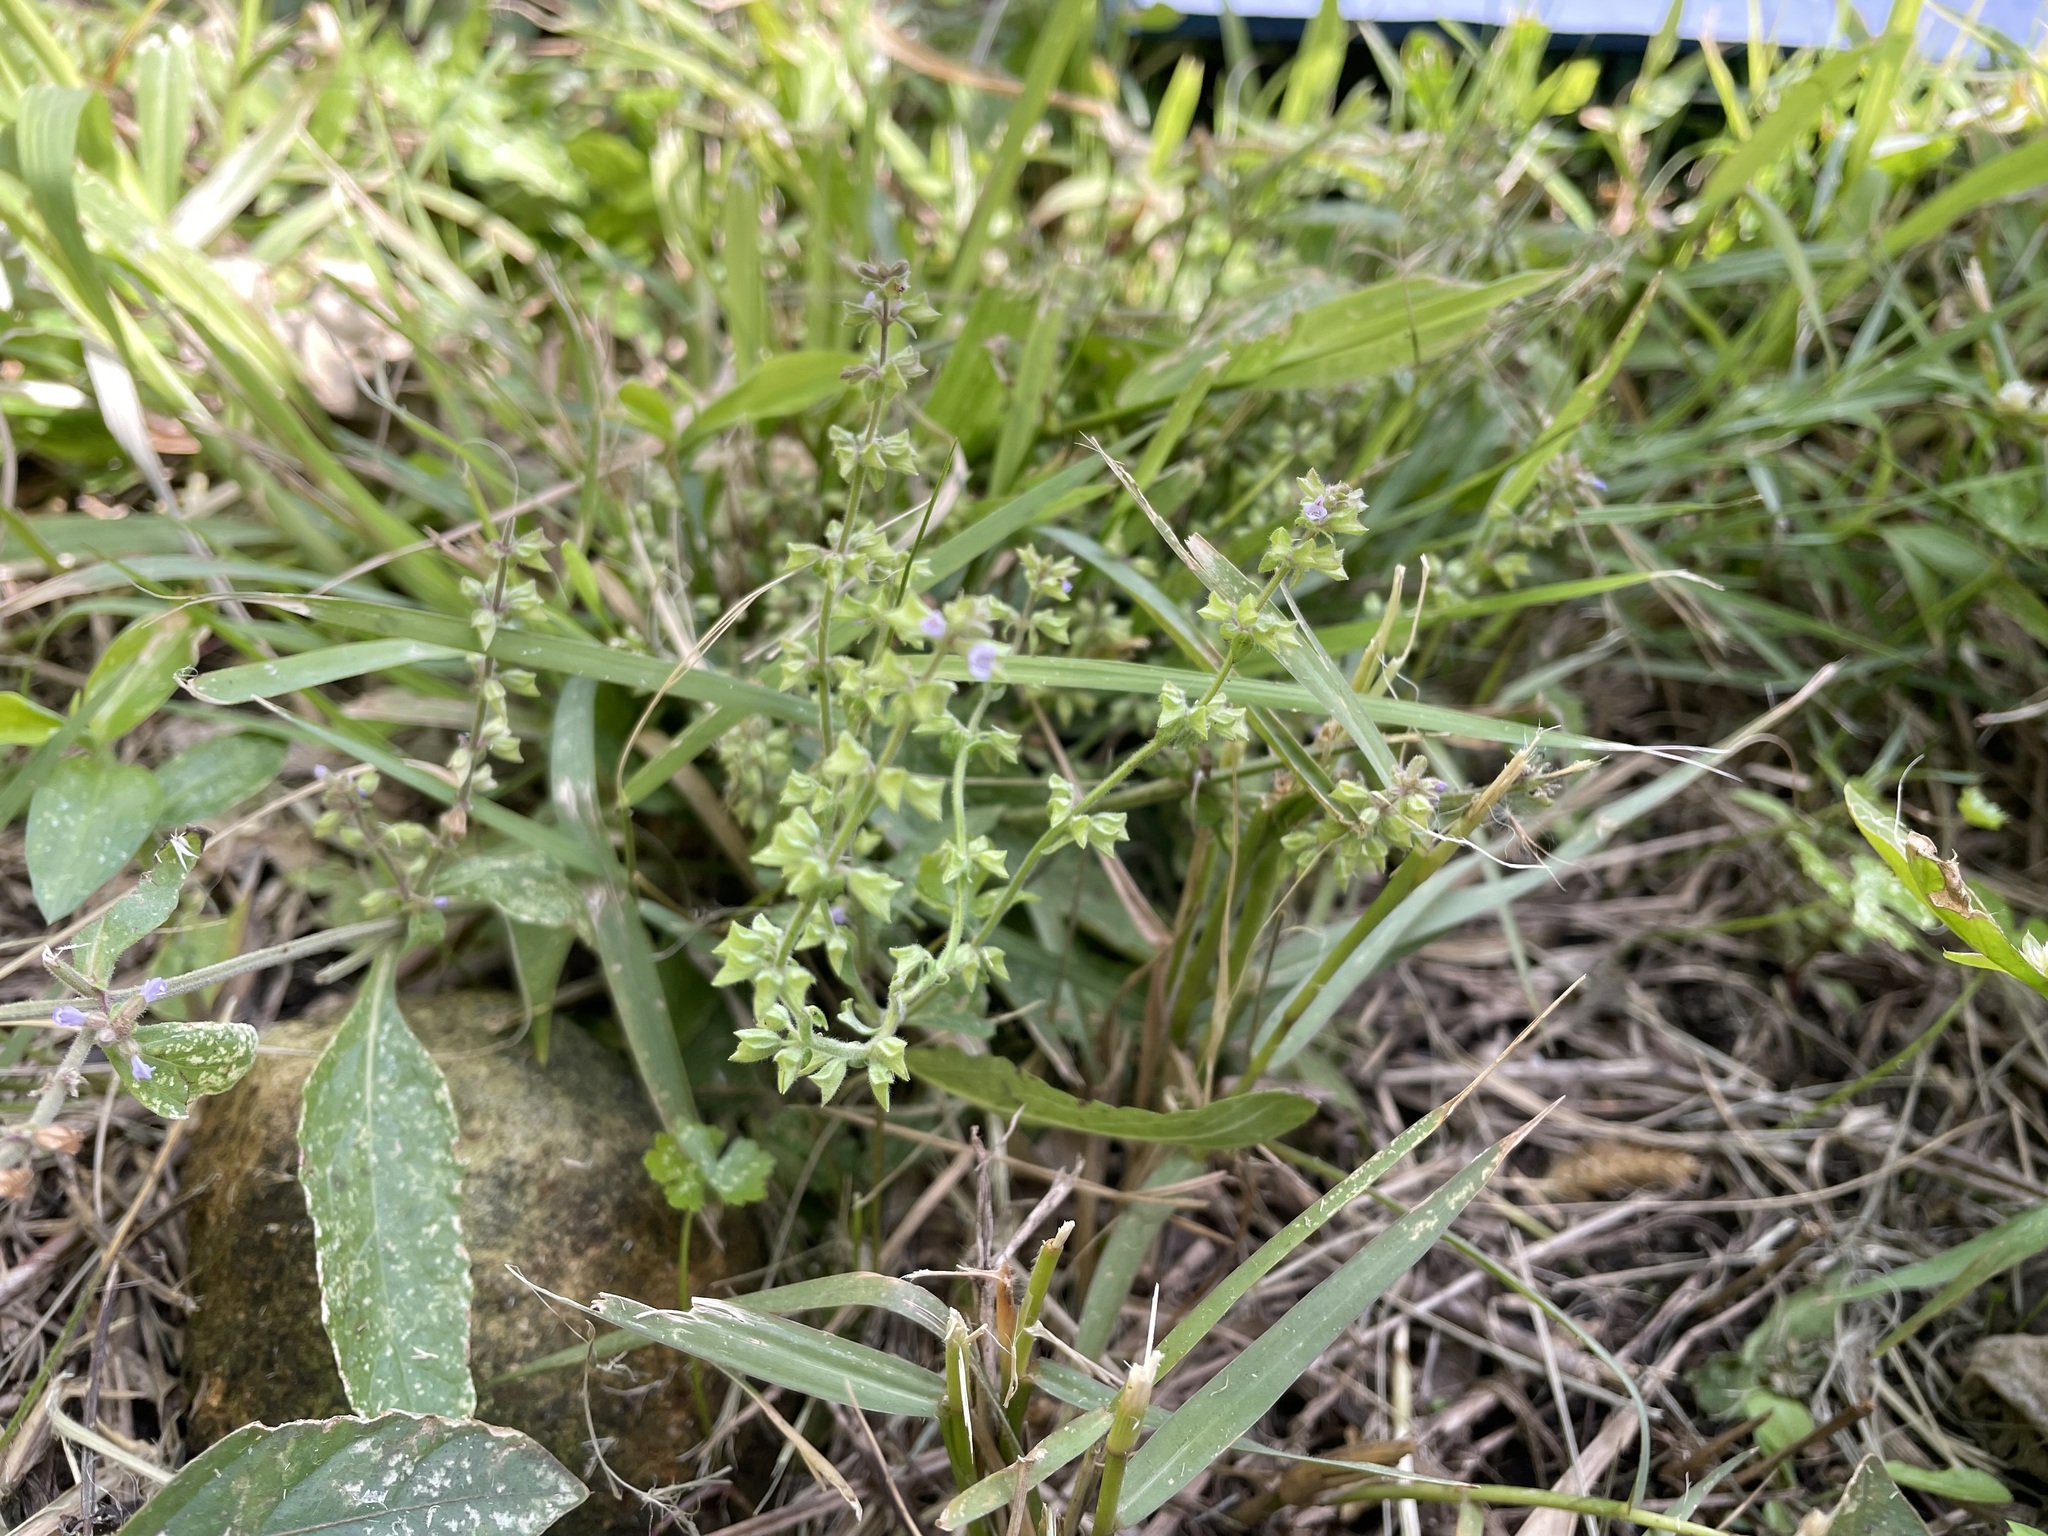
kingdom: Plantae
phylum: Tracheophyta
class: Magnoliopsida
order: Lamiales
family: Lamiaceae
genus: Salvia
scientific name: Salvia plebeia
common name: Australian sage
